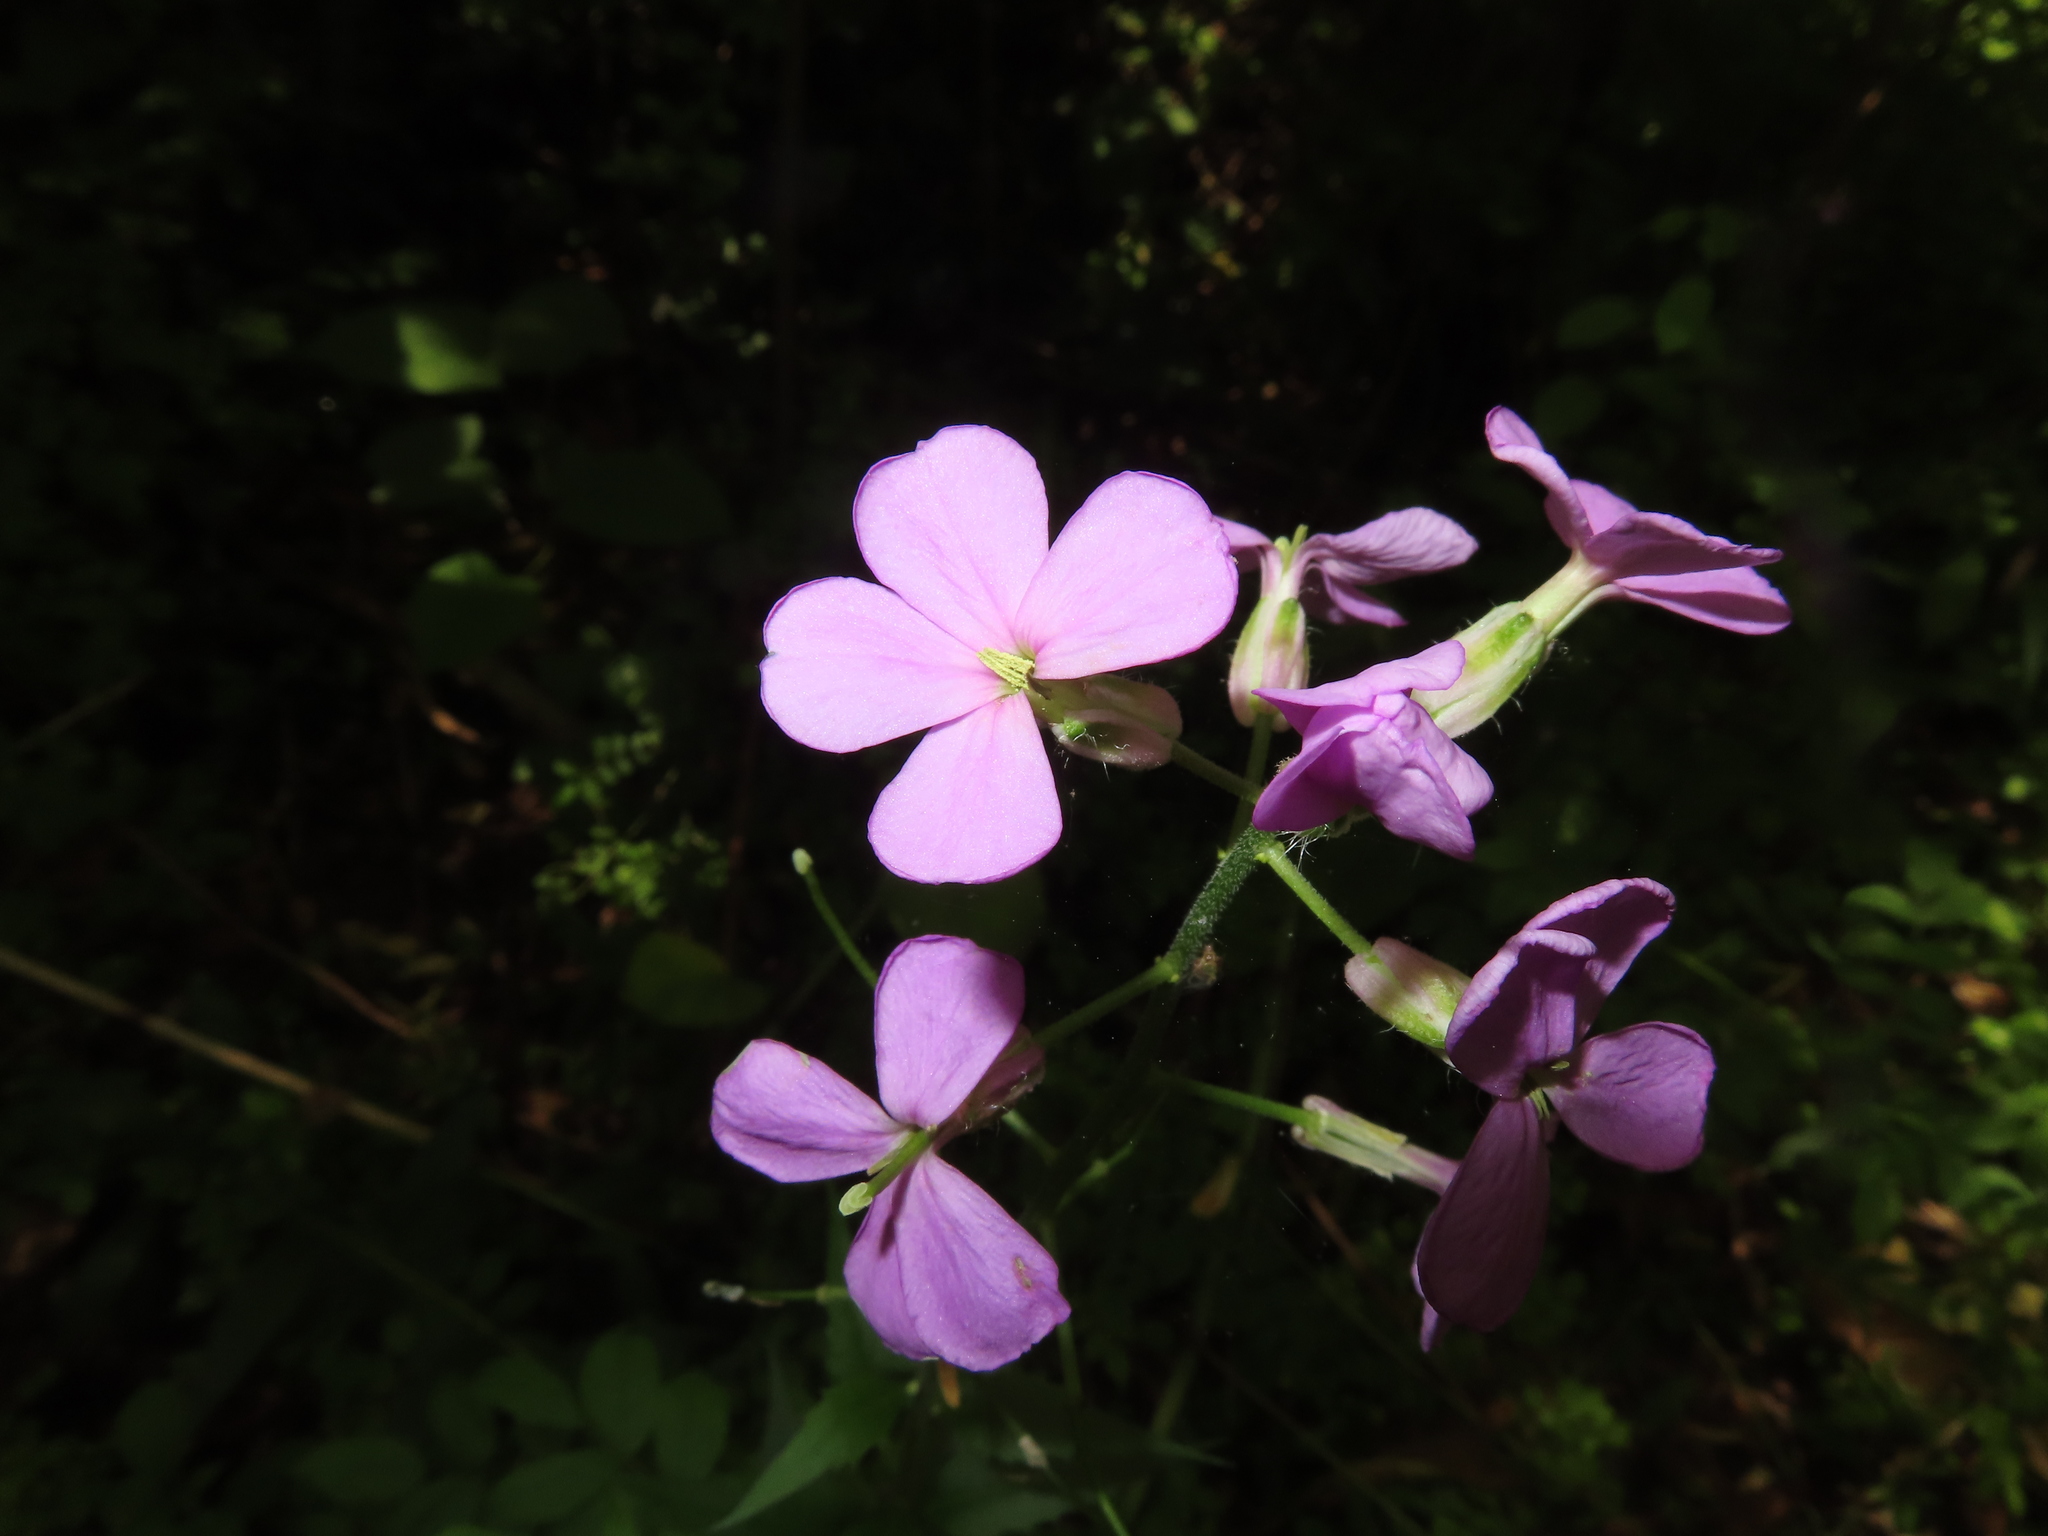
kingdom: Plantae
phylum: Tracheophyta
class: Magnoliopsida
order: Brassicales
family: Brassicaceae
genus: Hesperis
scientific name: Hesperis matronalis
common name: Dame's-violet
